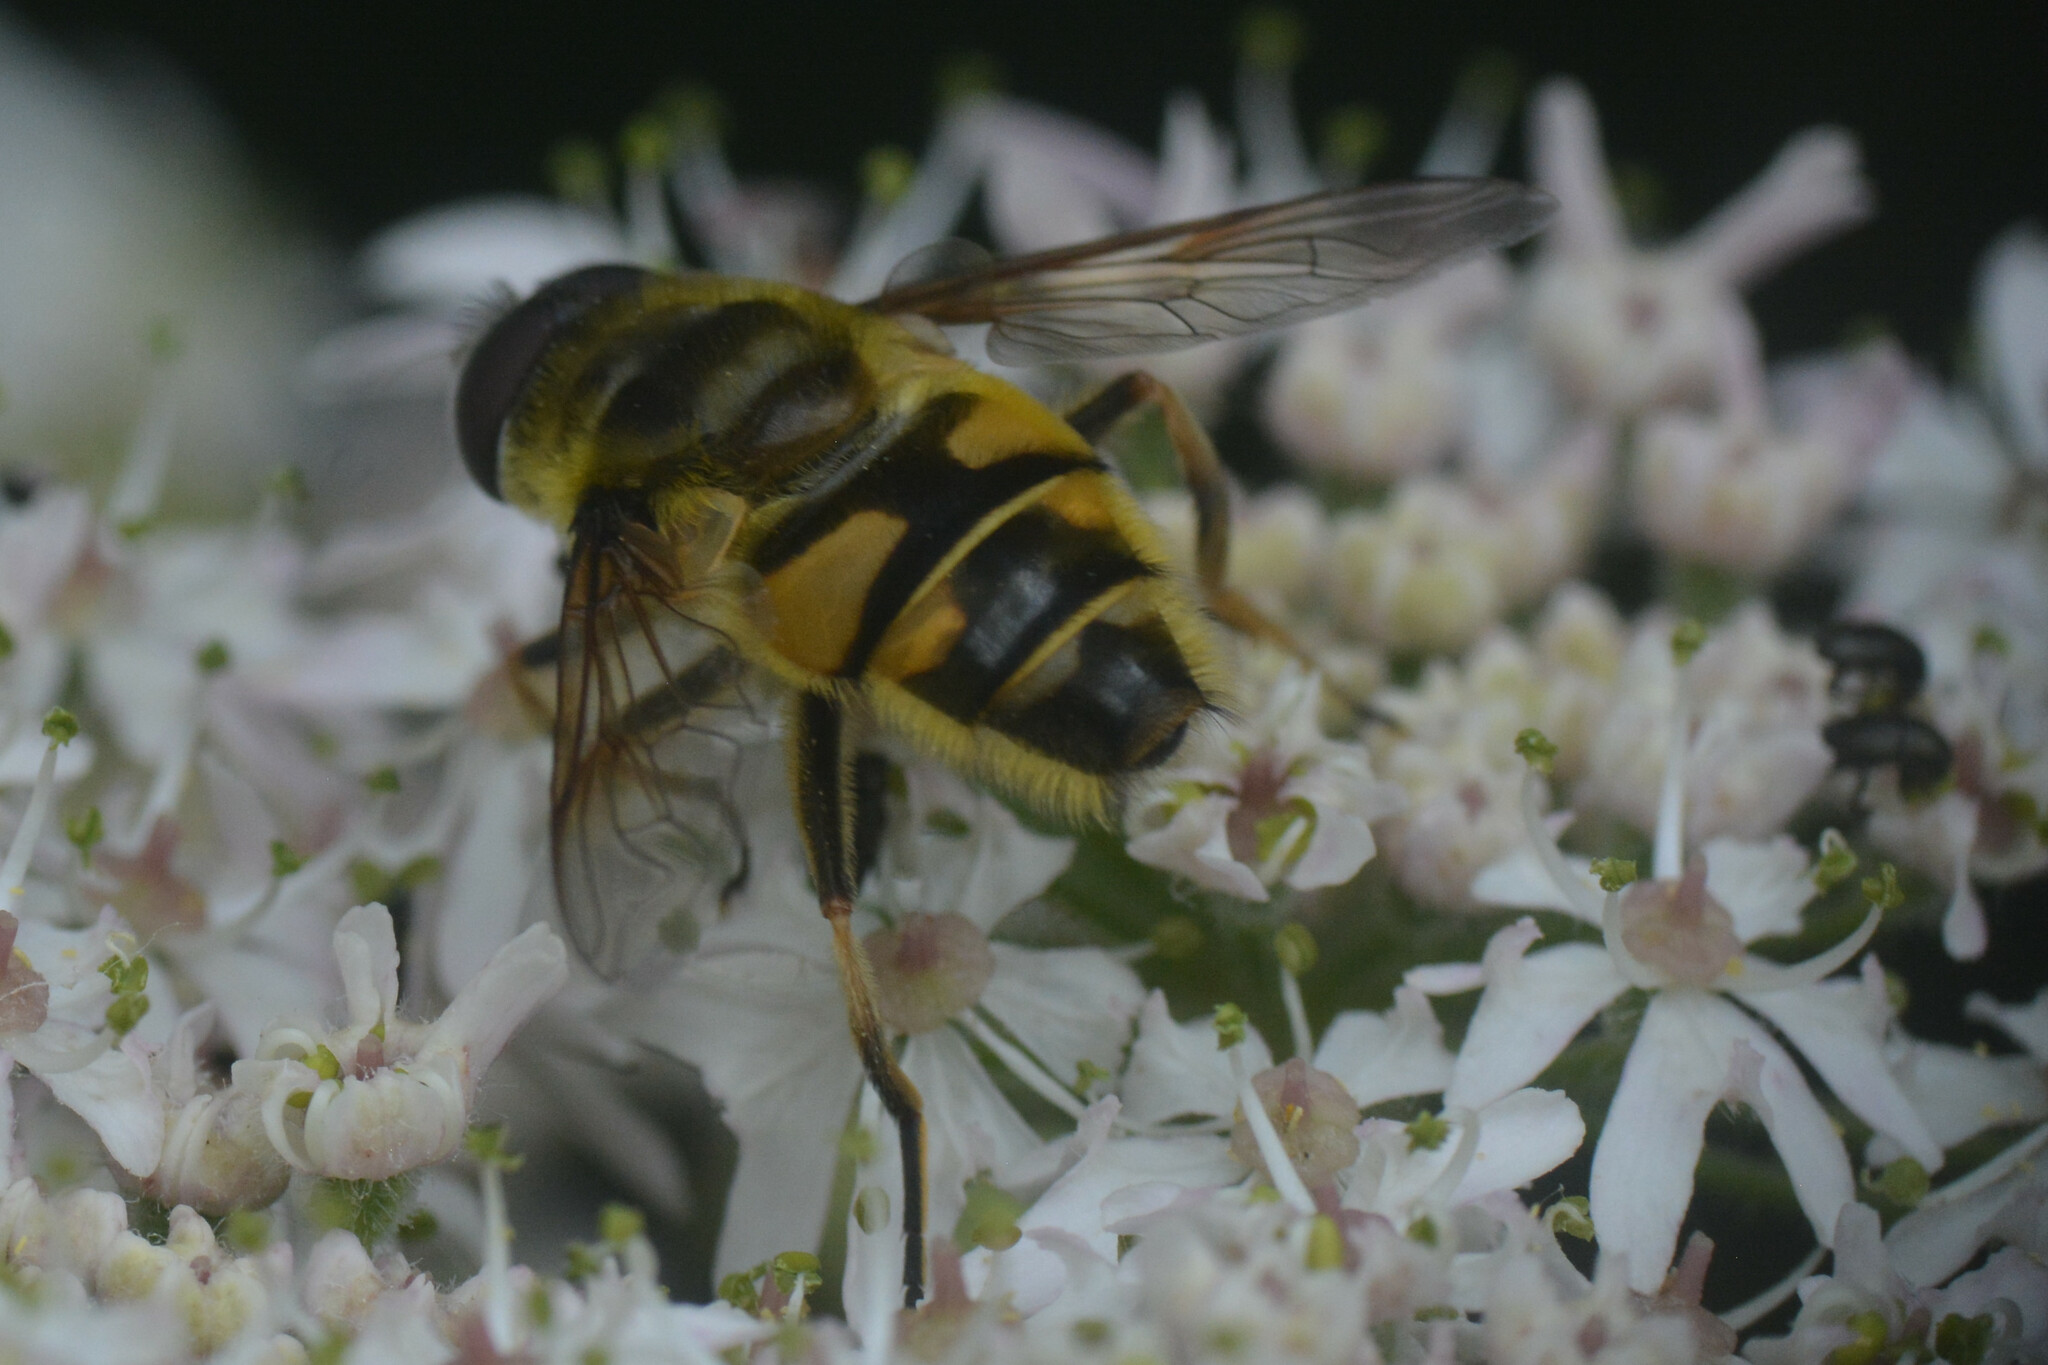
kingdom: Animalia
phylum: Arthropoda
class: Insecta
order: Diptera
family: Syrphidae
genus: Myathropa
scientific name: Myathropa florea
